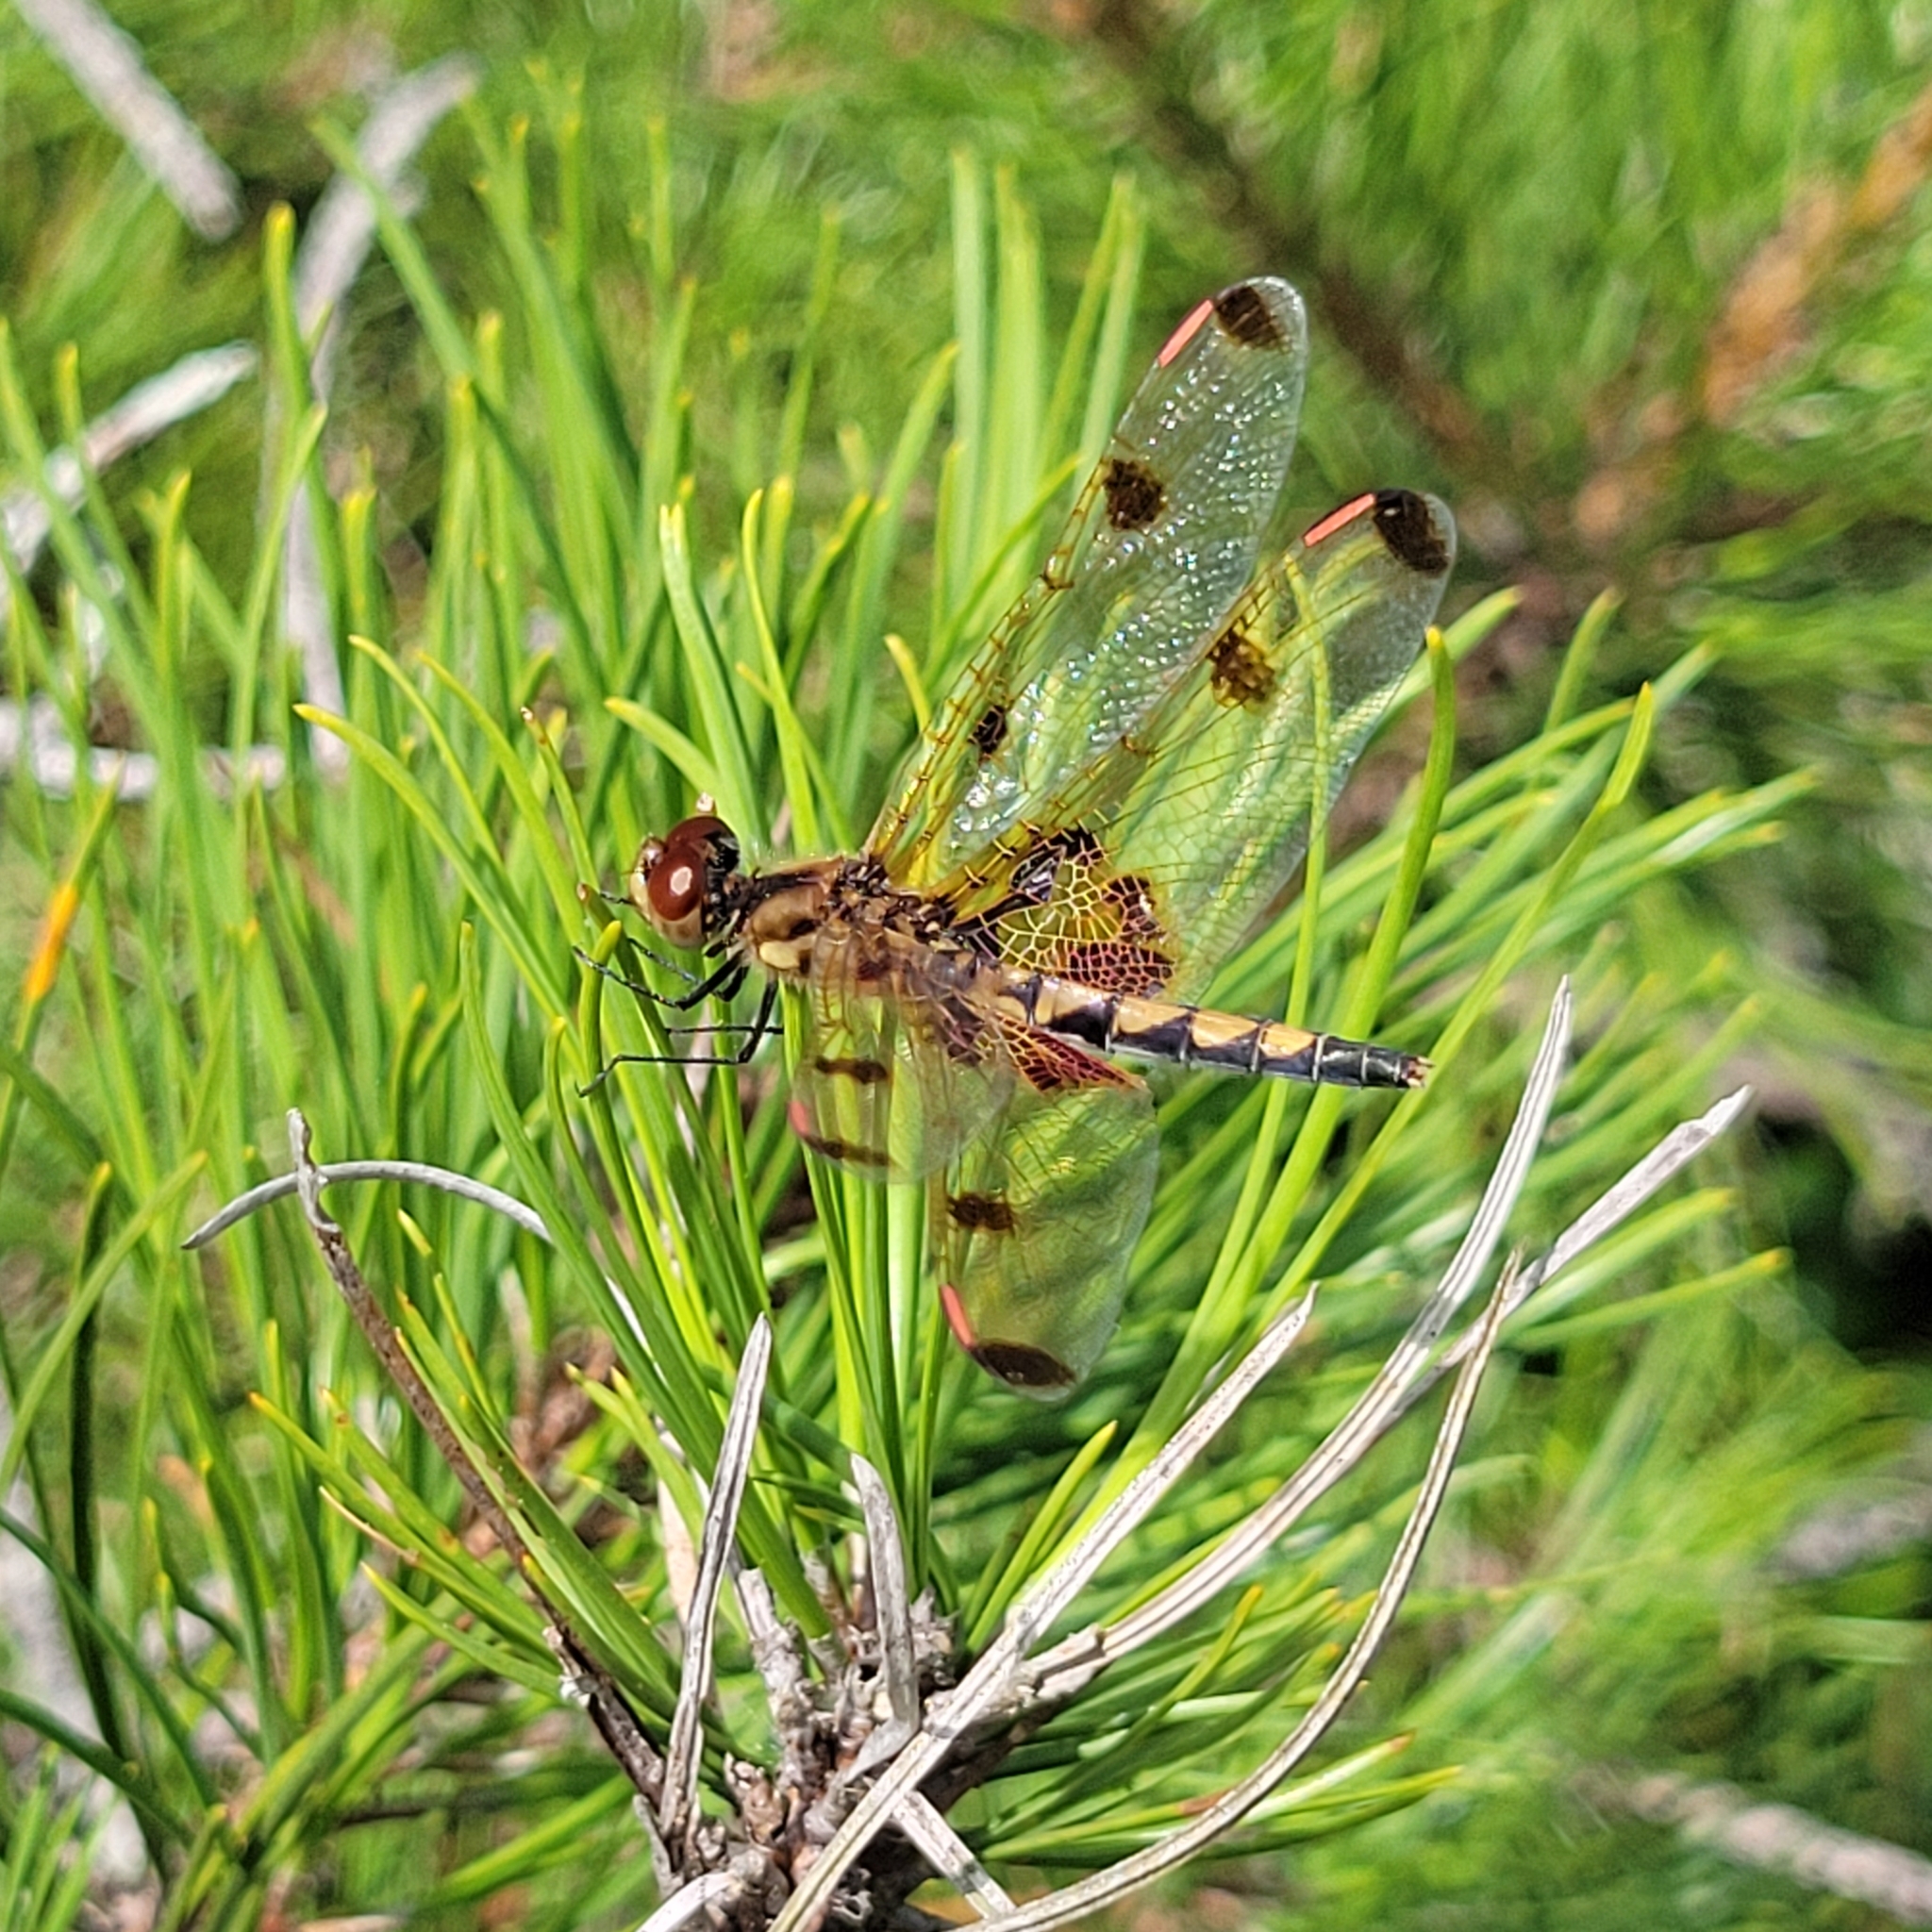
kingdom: Animalia
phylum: Arthropoda
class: Insecta
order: Odonata
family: Libellulidae
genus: Celithemis
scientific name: Celithemis elisa
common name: Calico pennant
